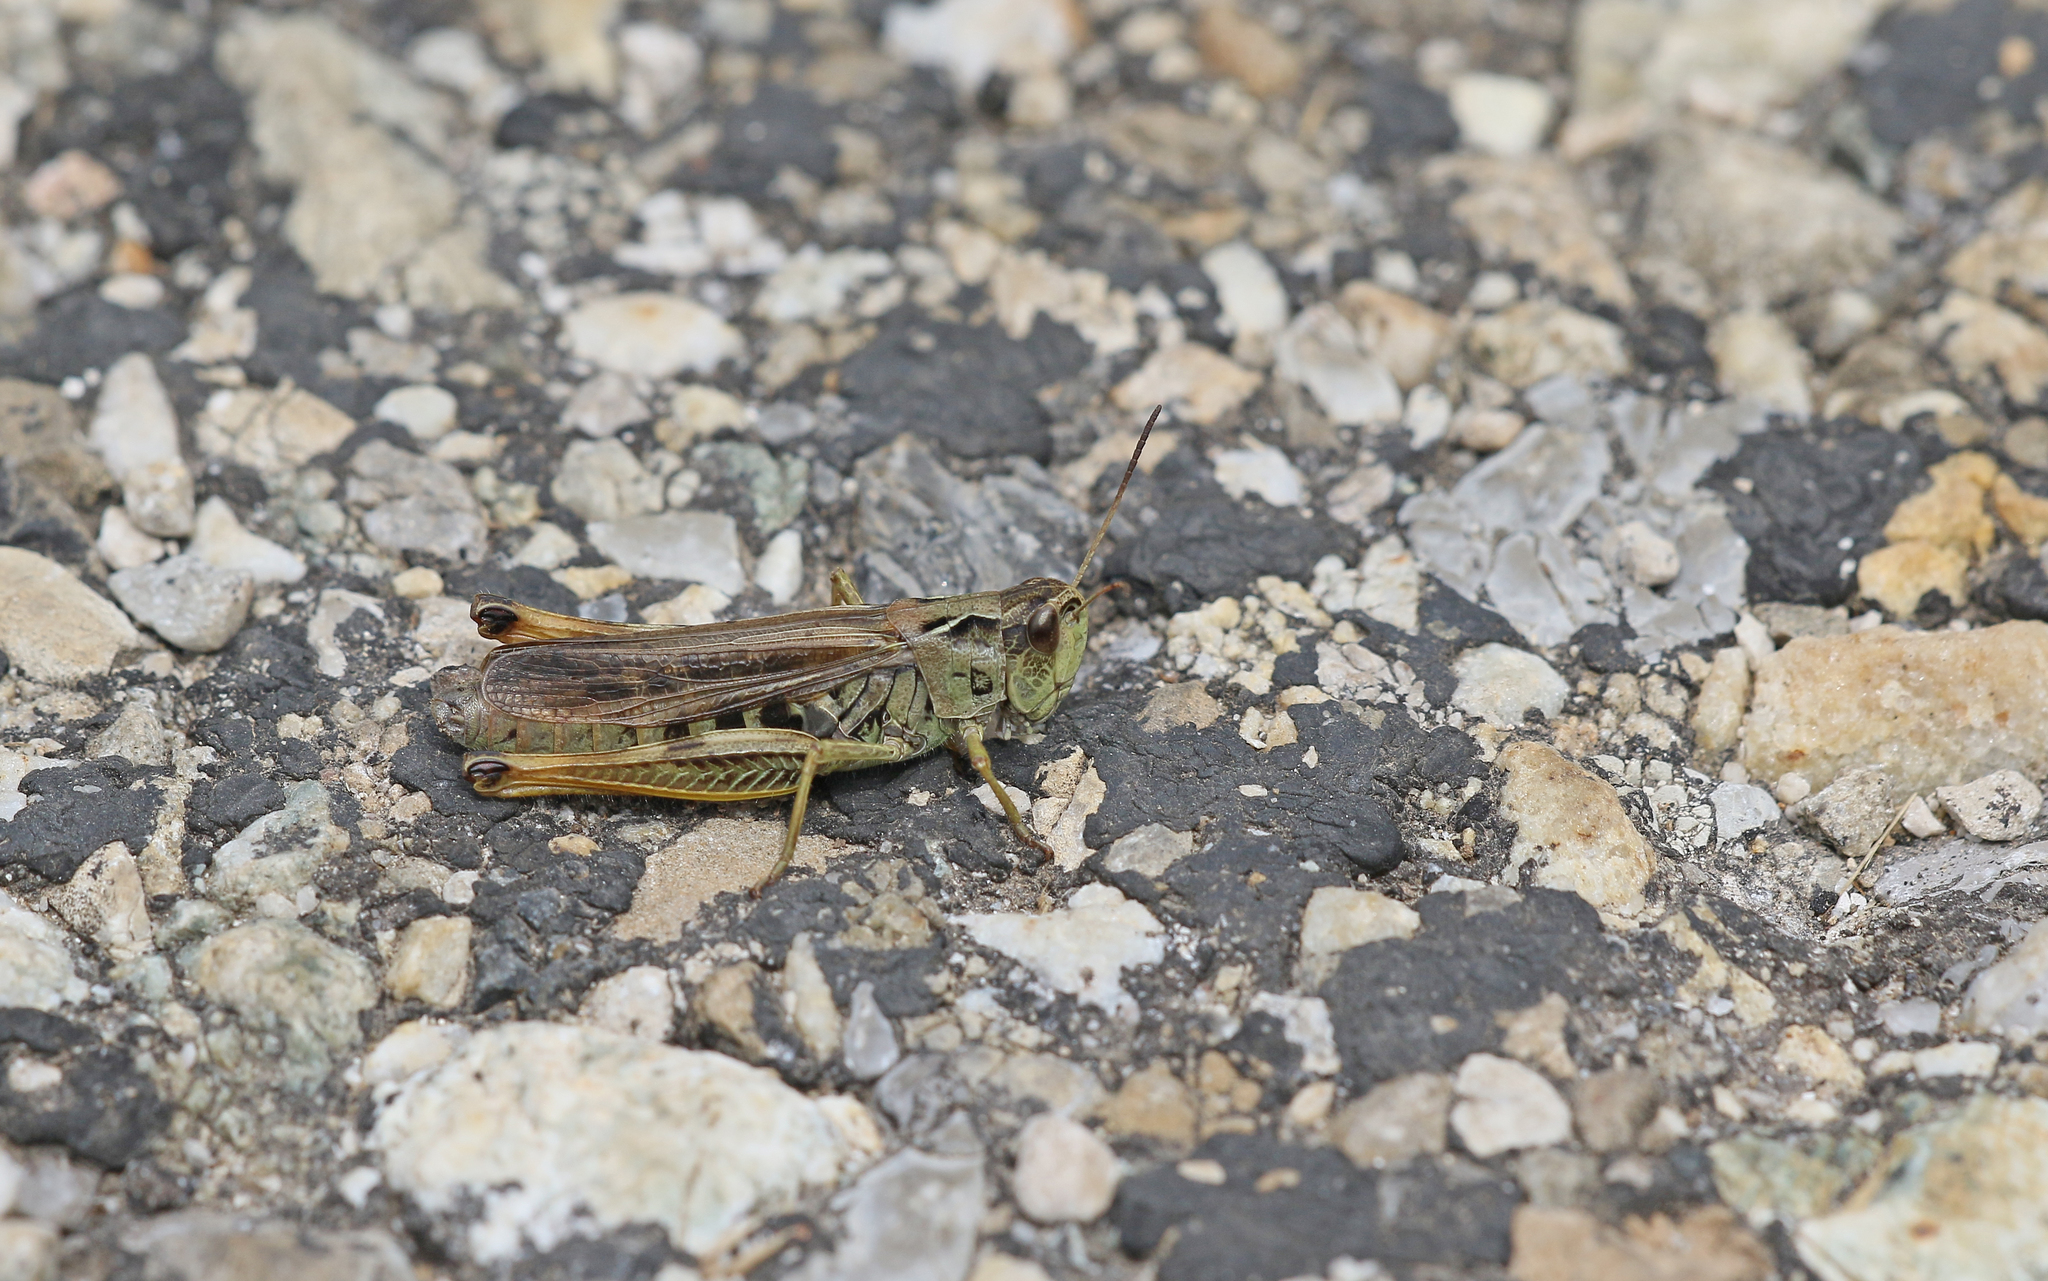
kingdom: Animalia
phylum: Arthropoda
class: Insecta
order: Orthoptera
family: Acrididae
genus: Stauroderus
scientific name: Stauroderus scalaris
